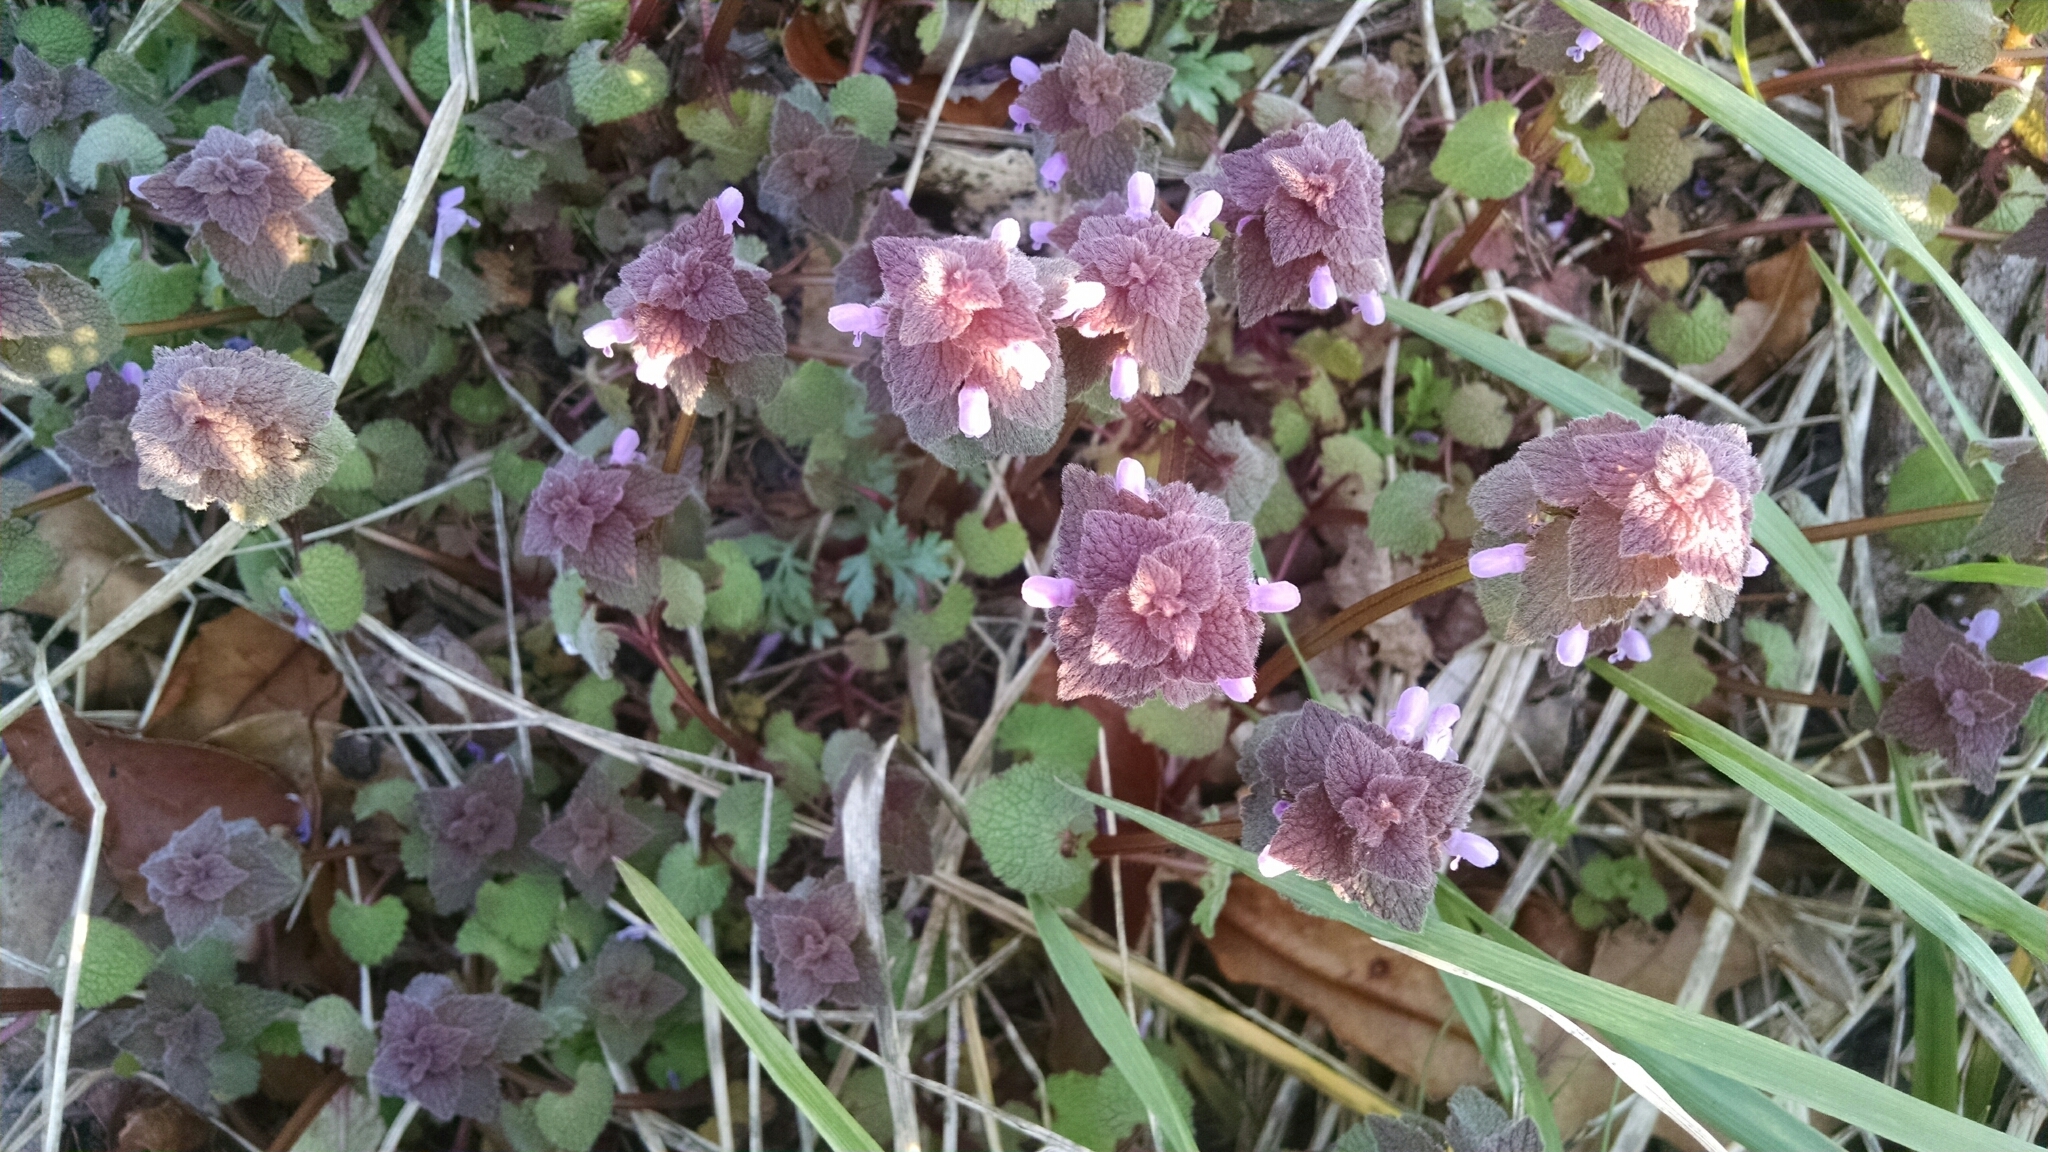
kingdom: Plantae
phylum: Tracheophyta
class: Magnoliopsida
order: Lamiales
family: Lamiaceae
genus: Lamium
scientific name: Lamium purpureum
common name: Red dead-nettle
